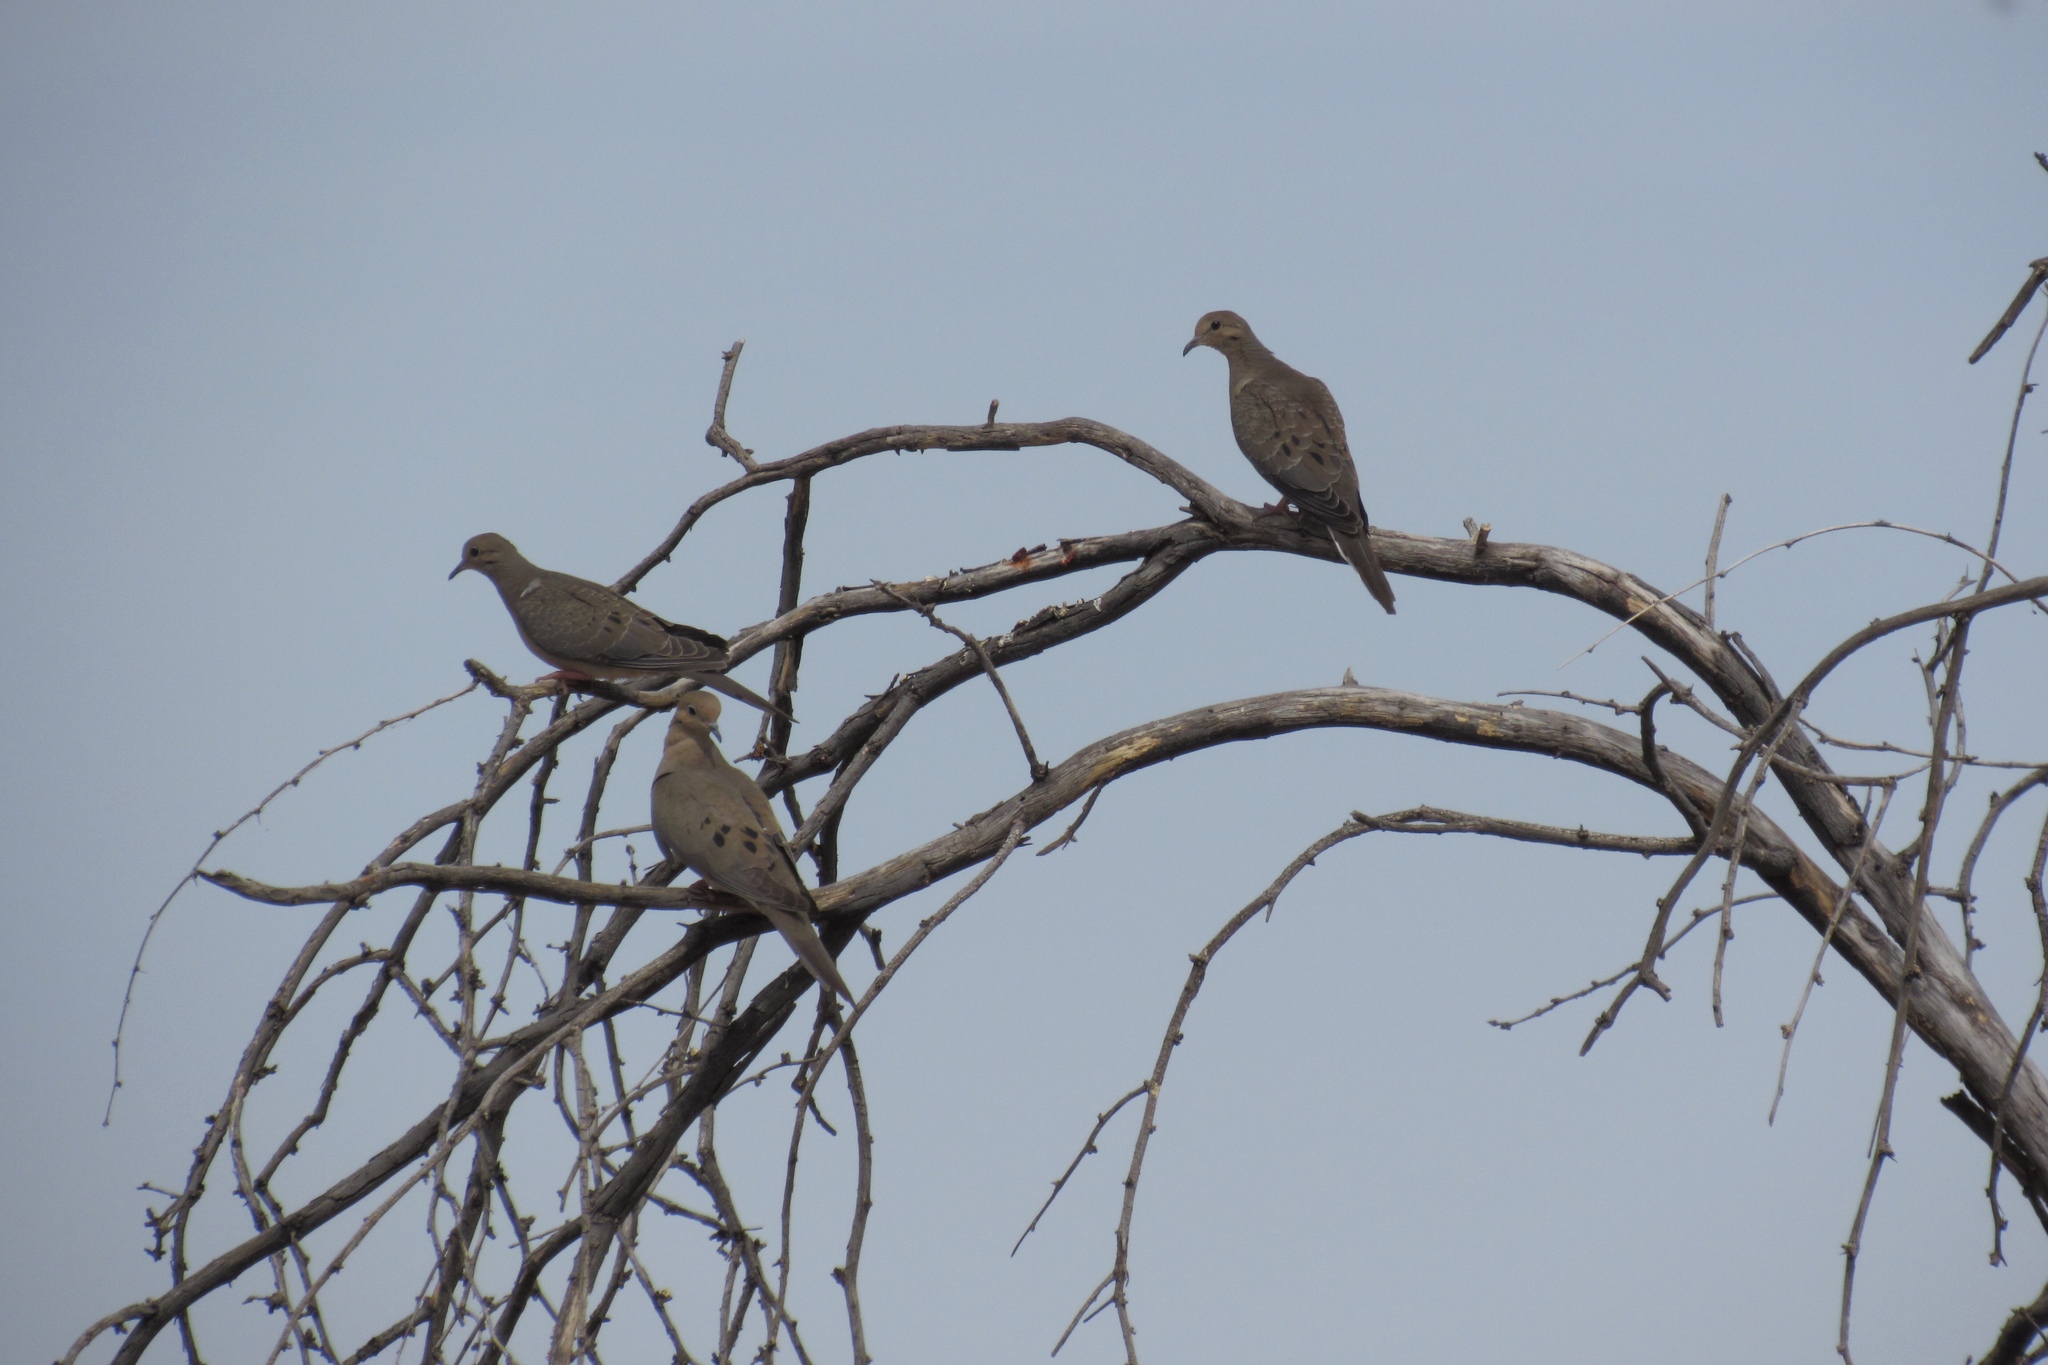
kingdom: Animalia
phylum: Chordata
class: Aves
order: Columbiformes
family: Columbidae
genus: Zenaida
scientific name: Zenaida macroura
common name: Mourning dove
